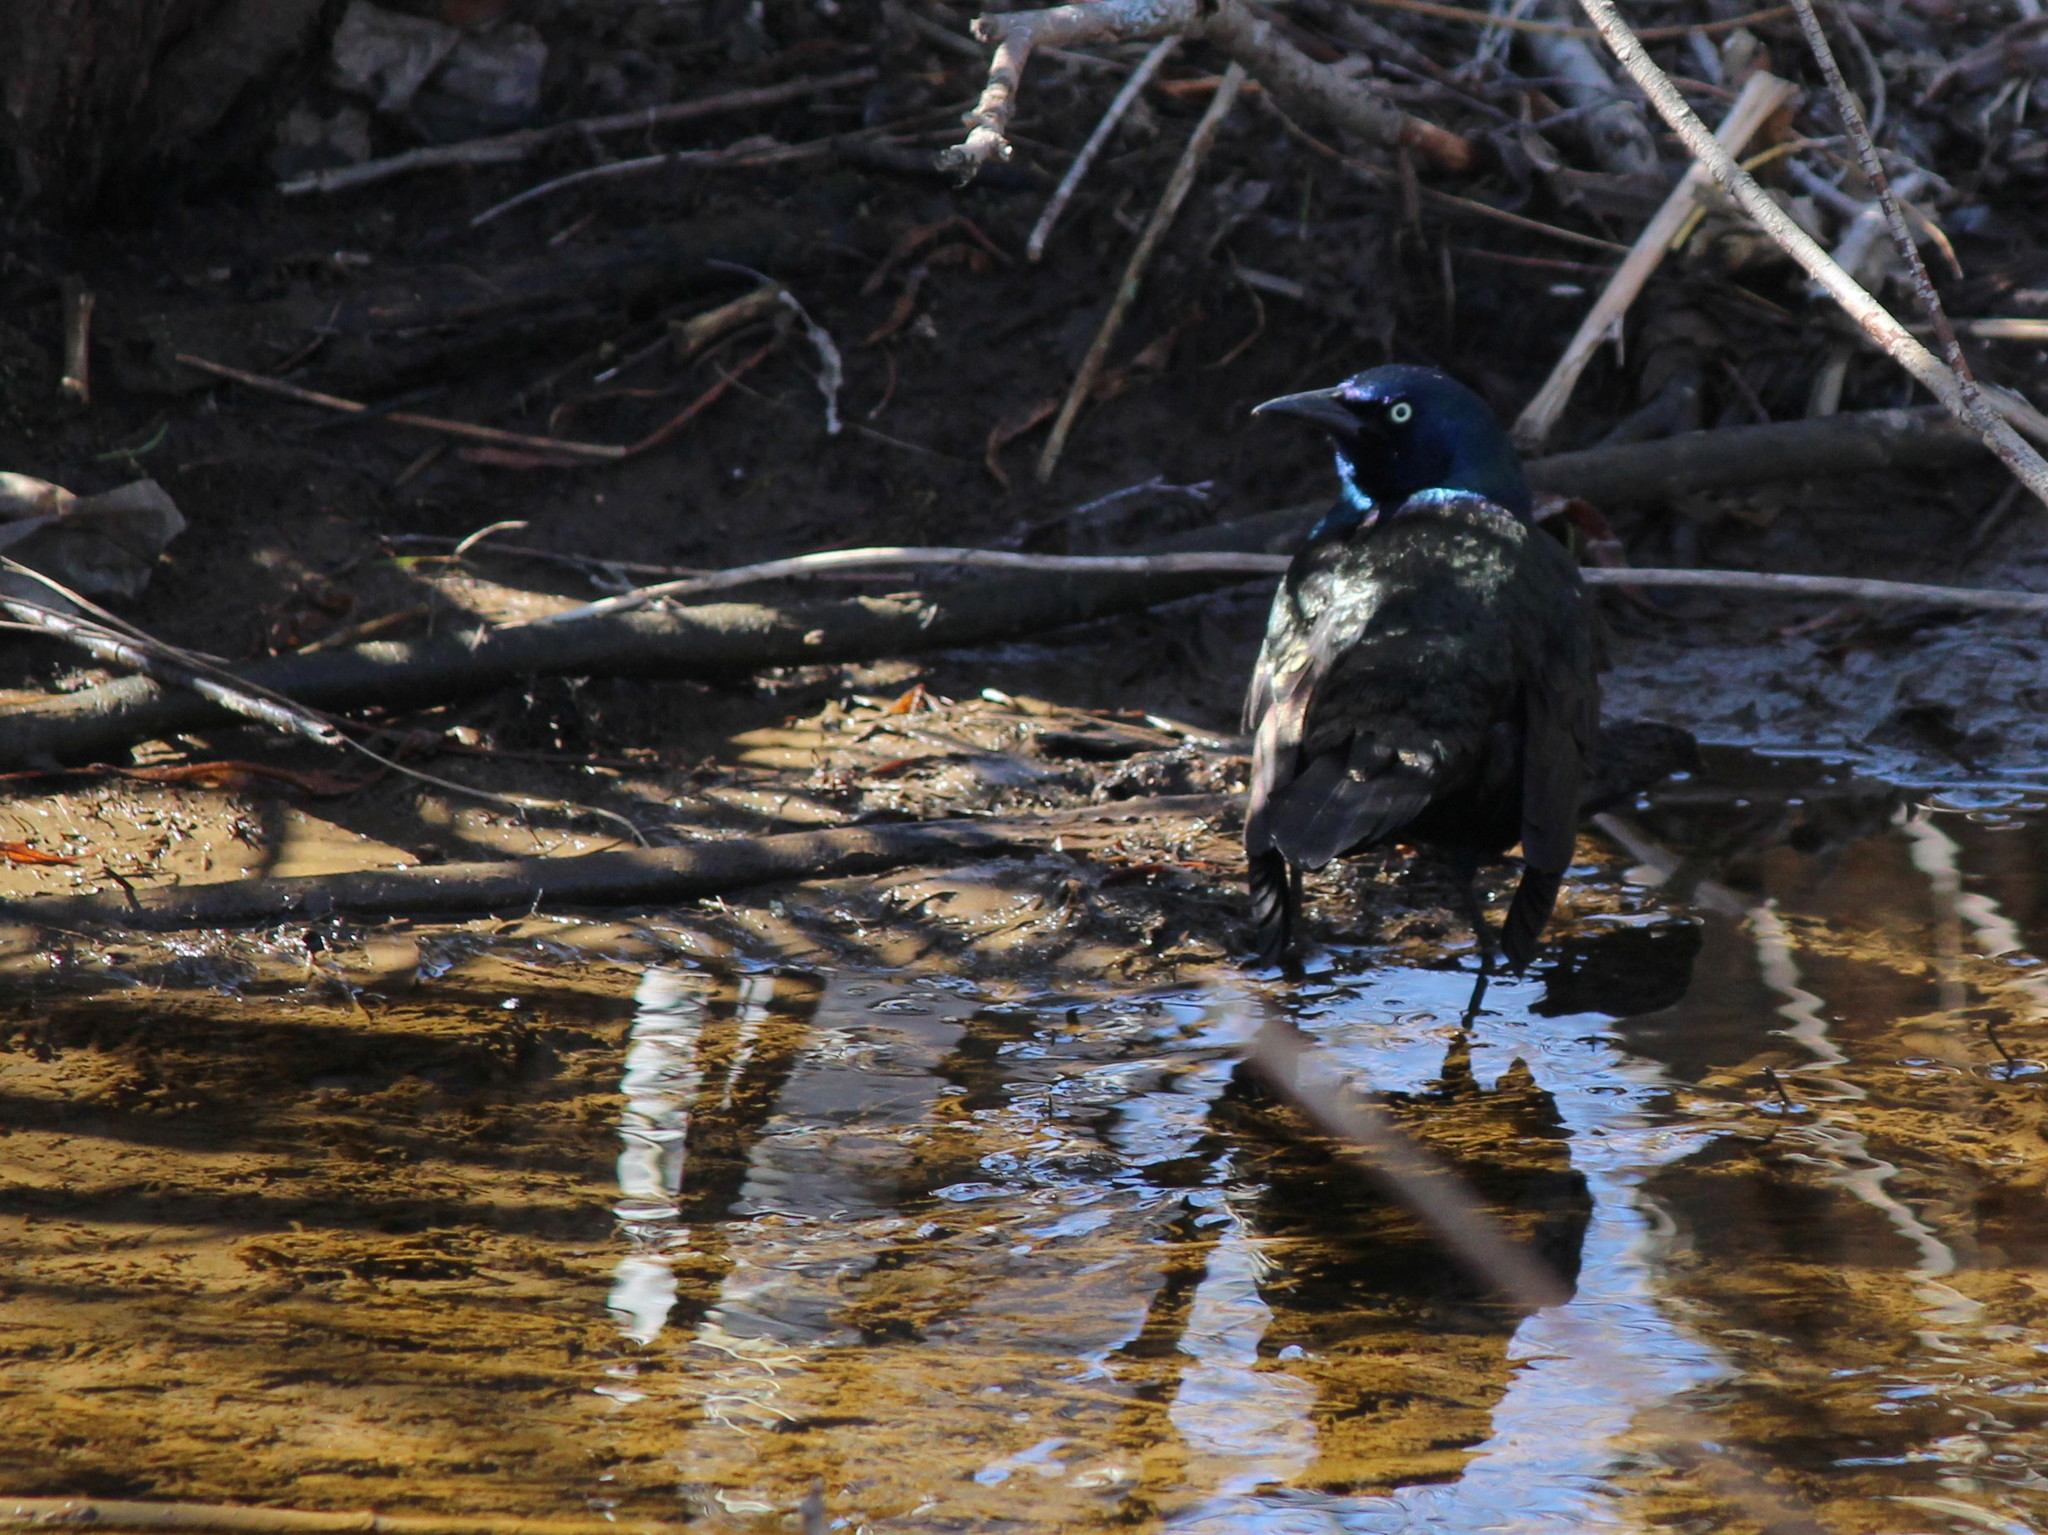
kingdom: Animalia
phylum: Chordata
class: Aves
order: Passeriformes
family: Icteridae
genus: Quiscalus
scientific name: Quiscalus quiscula
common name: Common grackle
